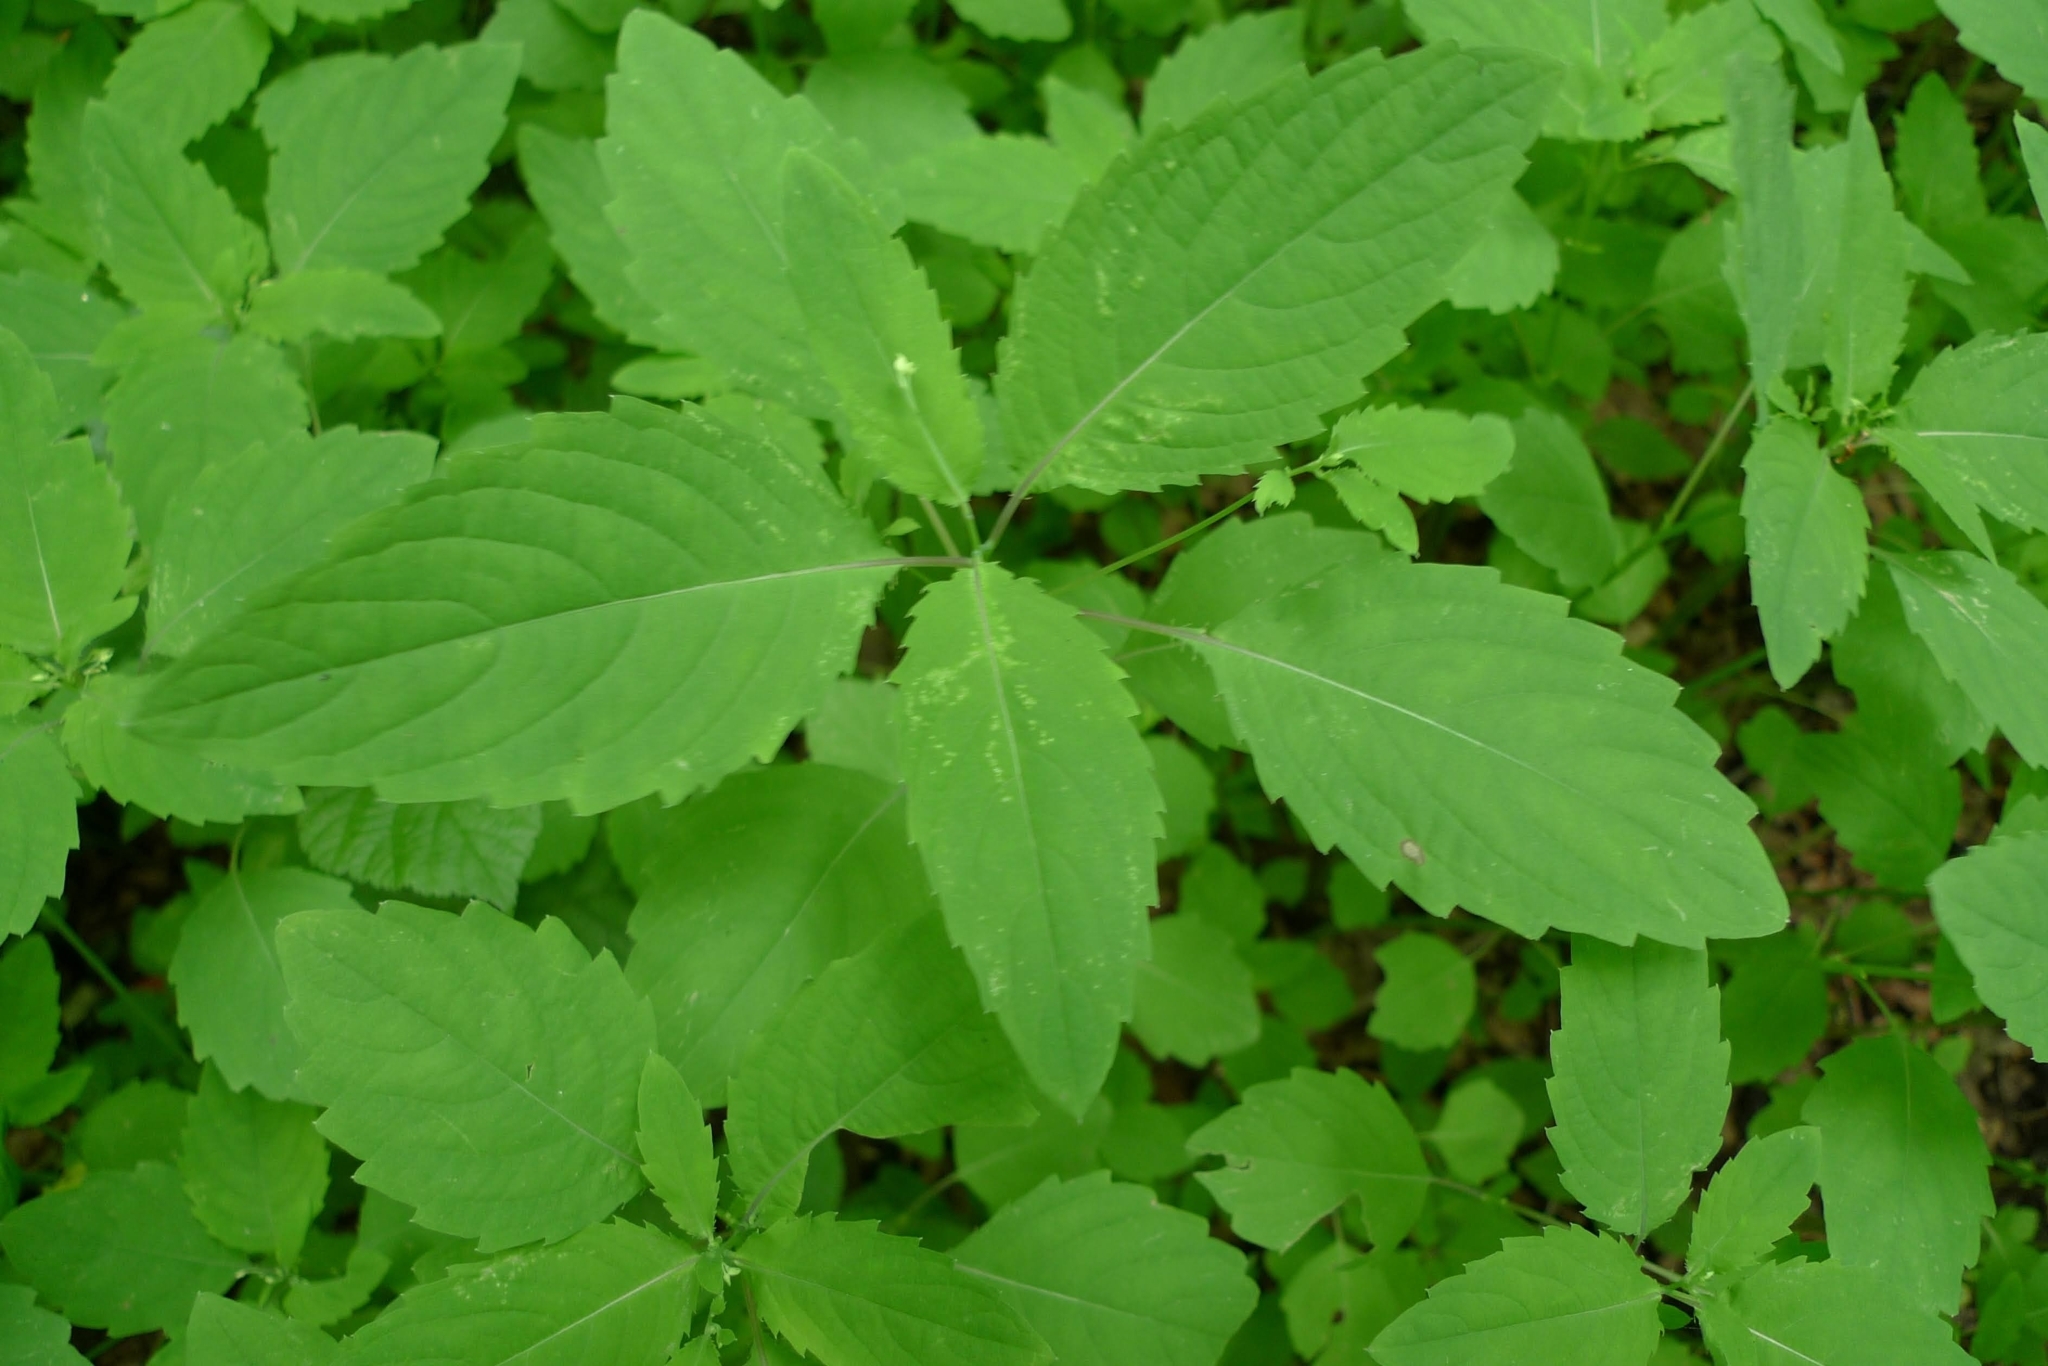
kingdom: Plantae
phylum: Tracheophyta
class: Magnoliopsida
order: Ericales
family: Balsaminaceae
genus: Impatiens
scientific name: Impatiens noli-tangere
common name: Touch-me-not balsam
